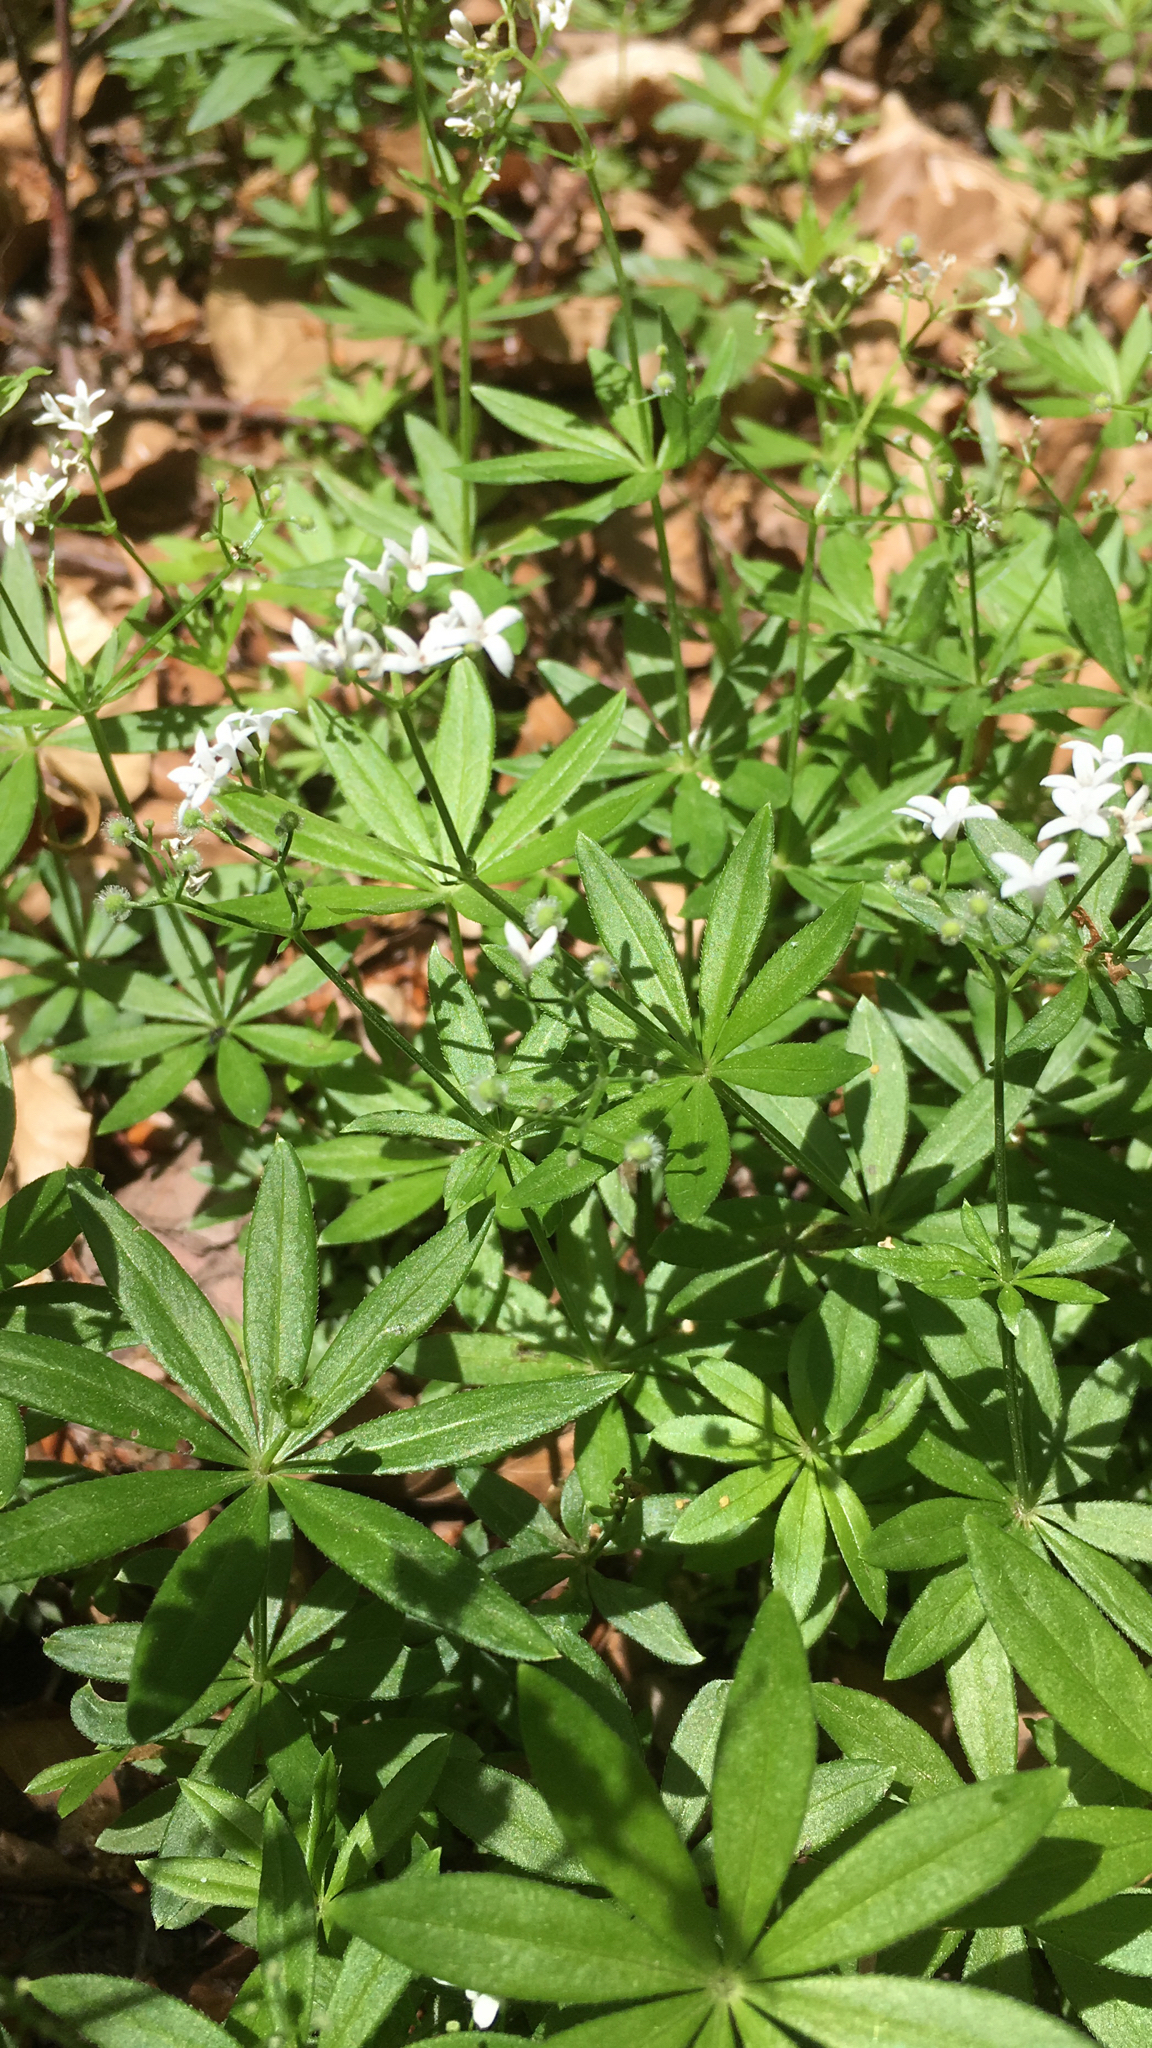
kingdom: Plantae
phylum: Tracheophyta
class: Magnoliopsida
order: Gentianales
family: Rubiaceae
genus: Galium
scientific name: Galium odoratum
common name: Sweet woodruff
